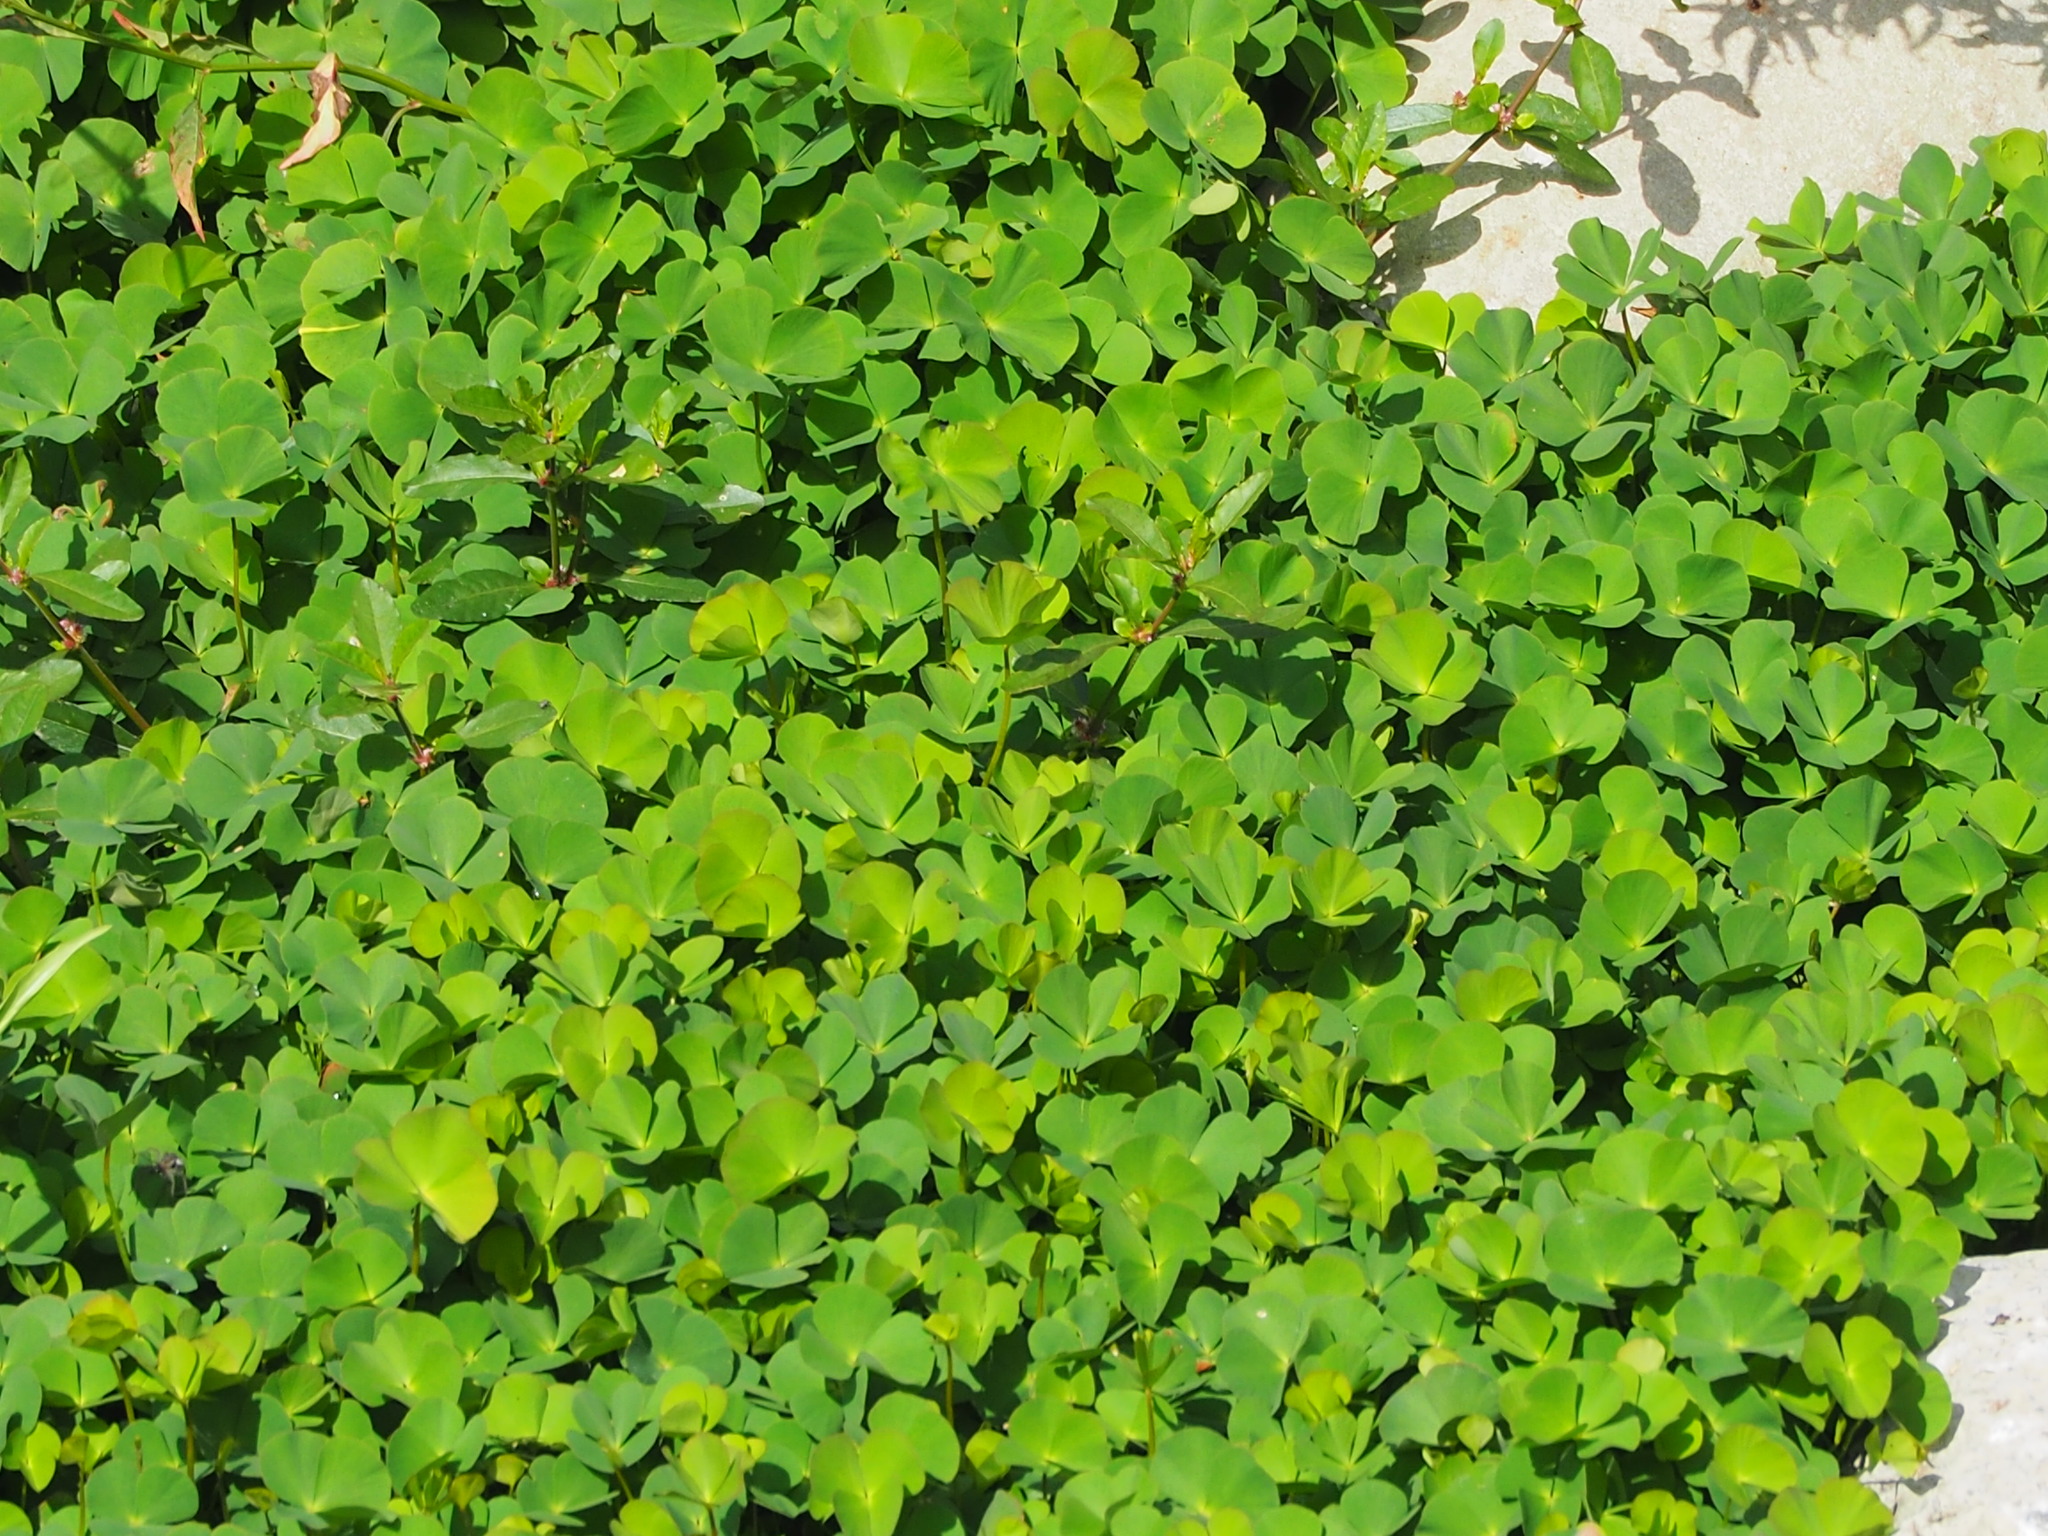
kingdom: Plantae
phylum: Tracheophyta
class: Polypodiopsida
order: Salviniales
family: Marsileaceae
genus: Marsilea
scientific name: Marsilea minuta
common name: Dwarf waterclover
